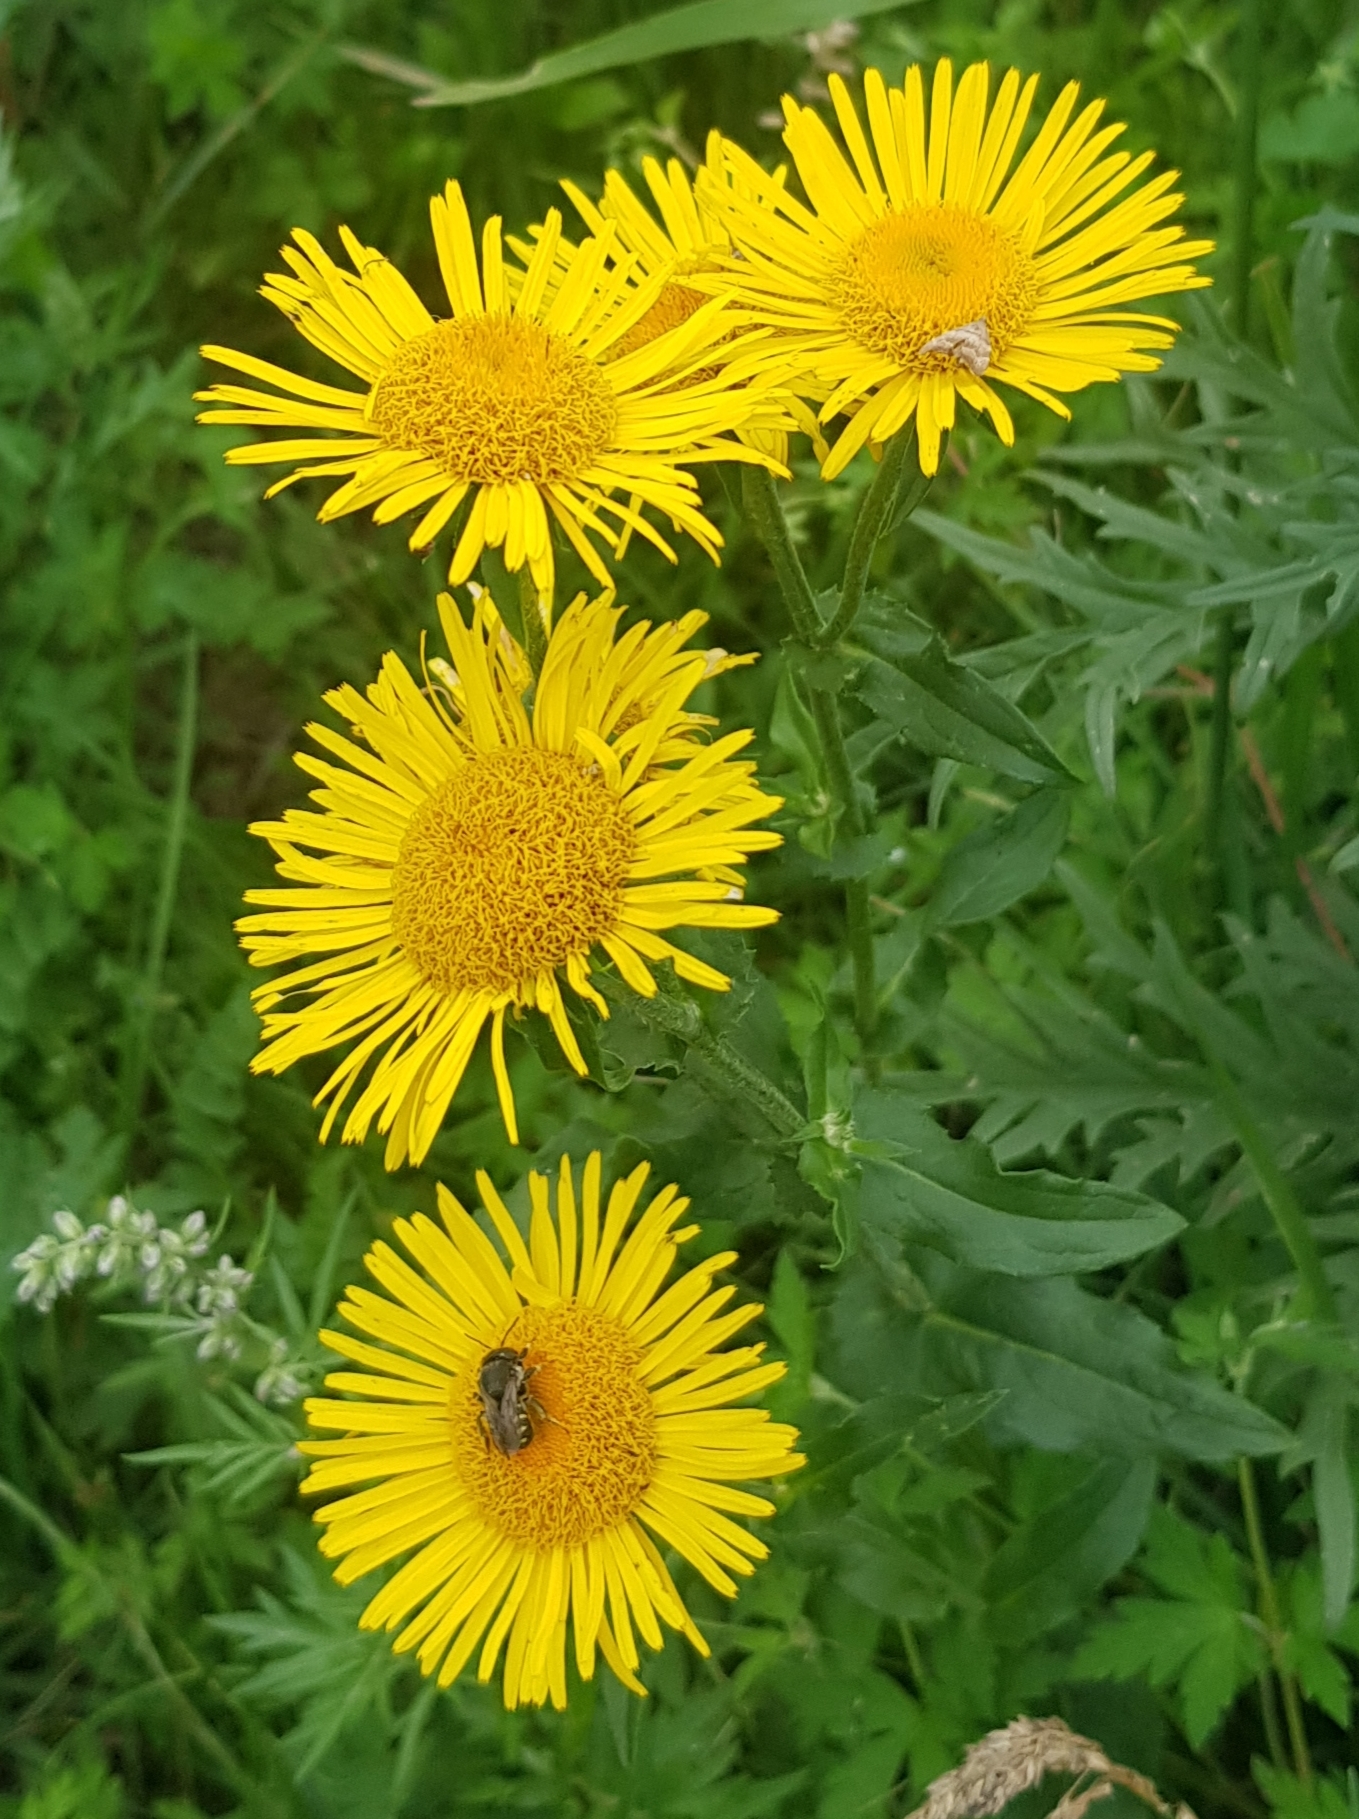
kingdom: Plantae
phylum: Tracheophyta
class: Magnoliopsida
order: Asterales
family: Asteraceae
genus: Pentanema
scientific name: Pentanema britannicum
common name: British elecampane
